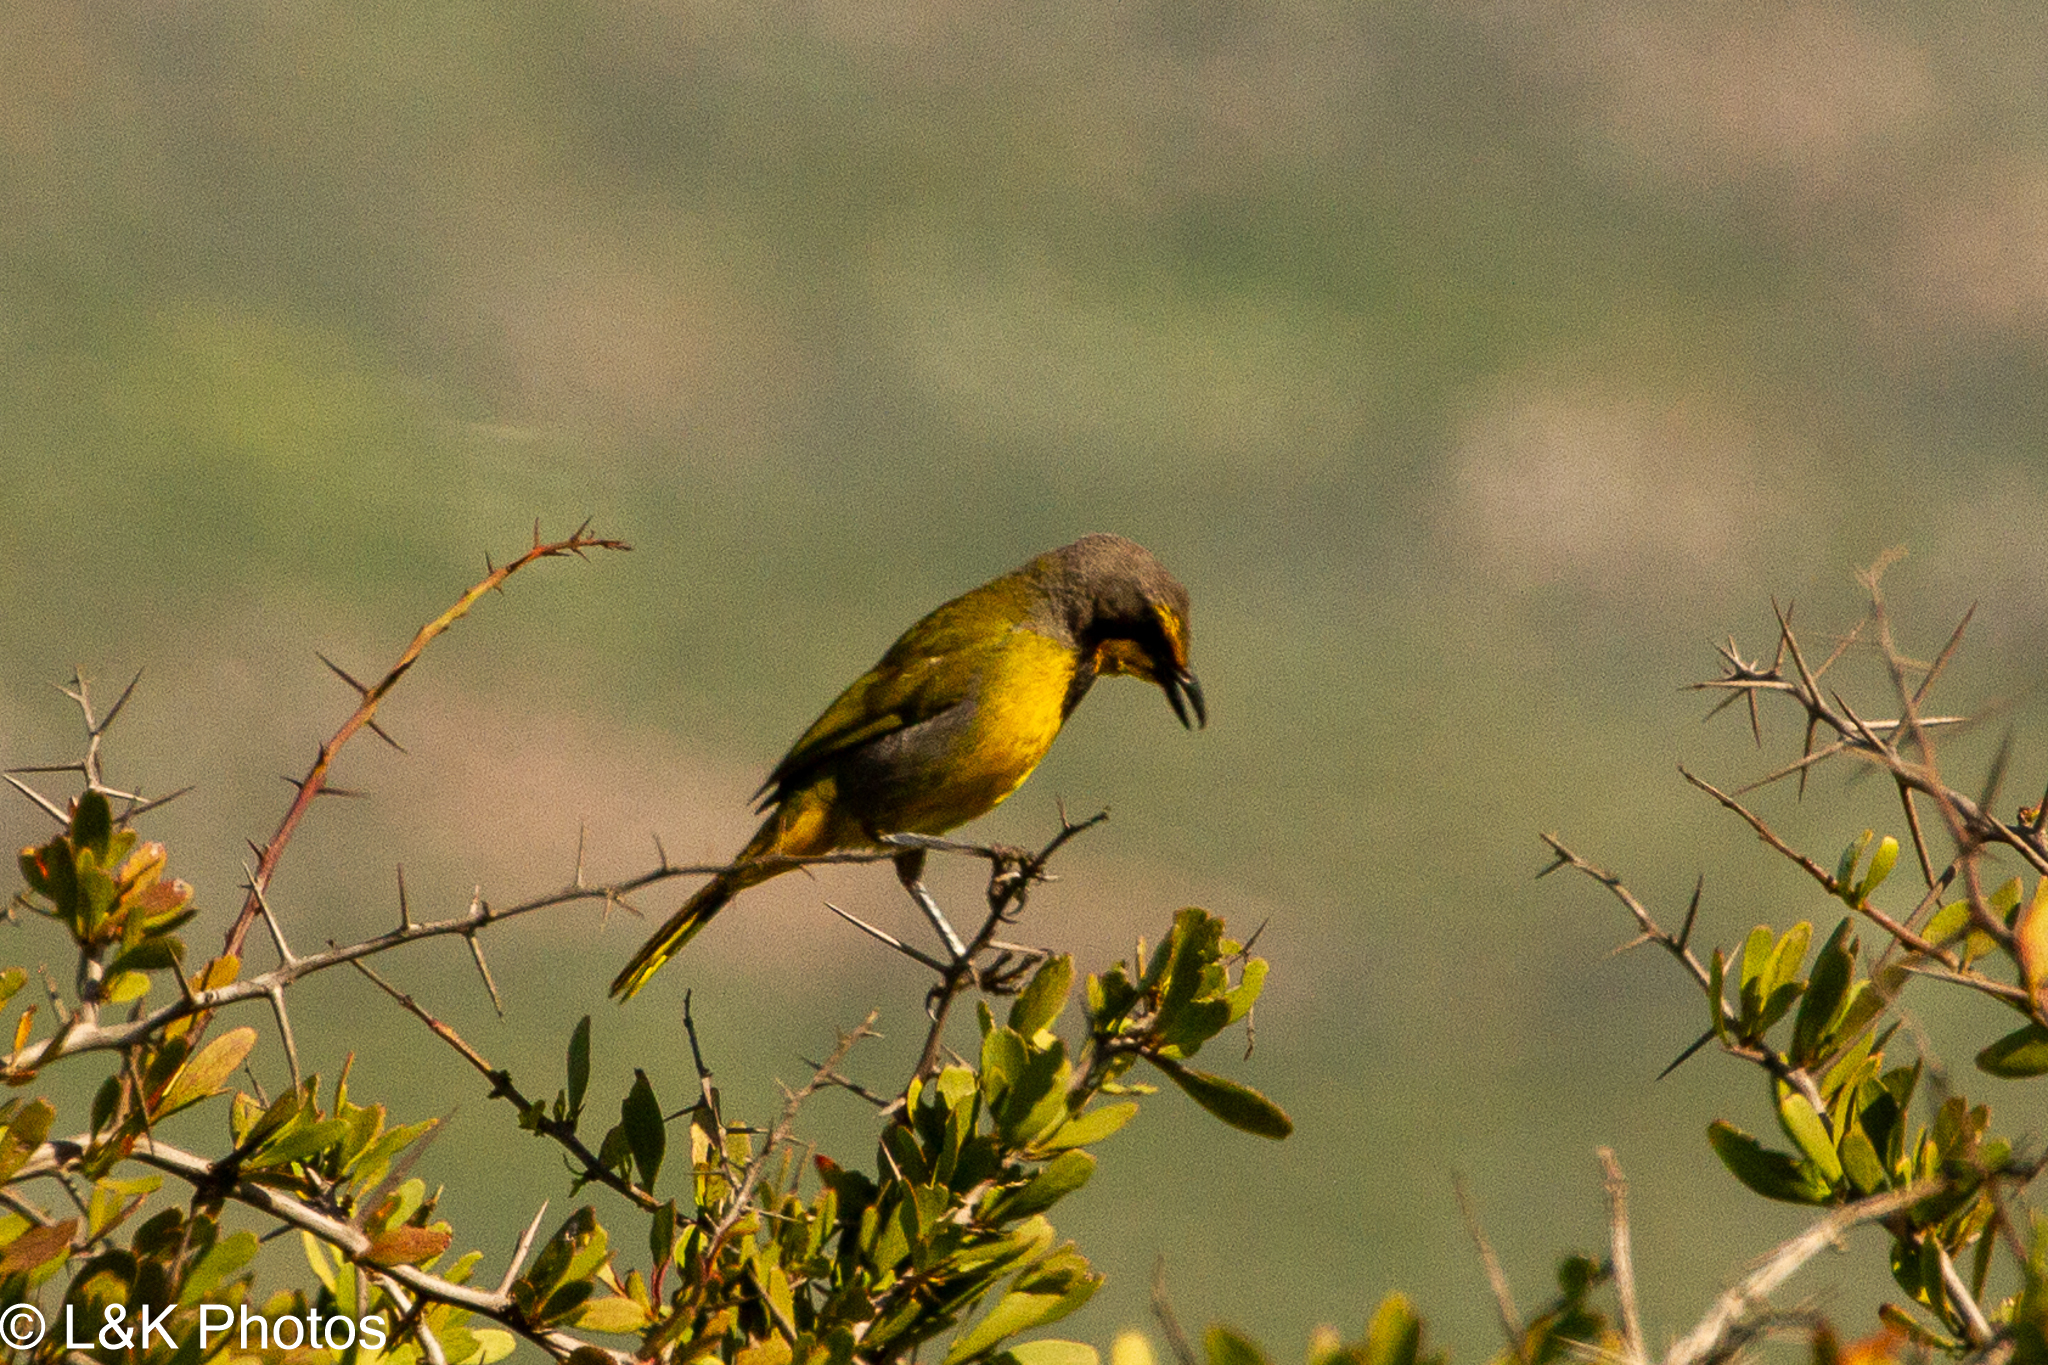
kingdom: Animalia
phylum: Chordata
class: Aves
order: Passeriformes
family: Malaconotidae
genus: Telophorus
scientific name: Telophorus zeylonus
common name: Bokmakierie
